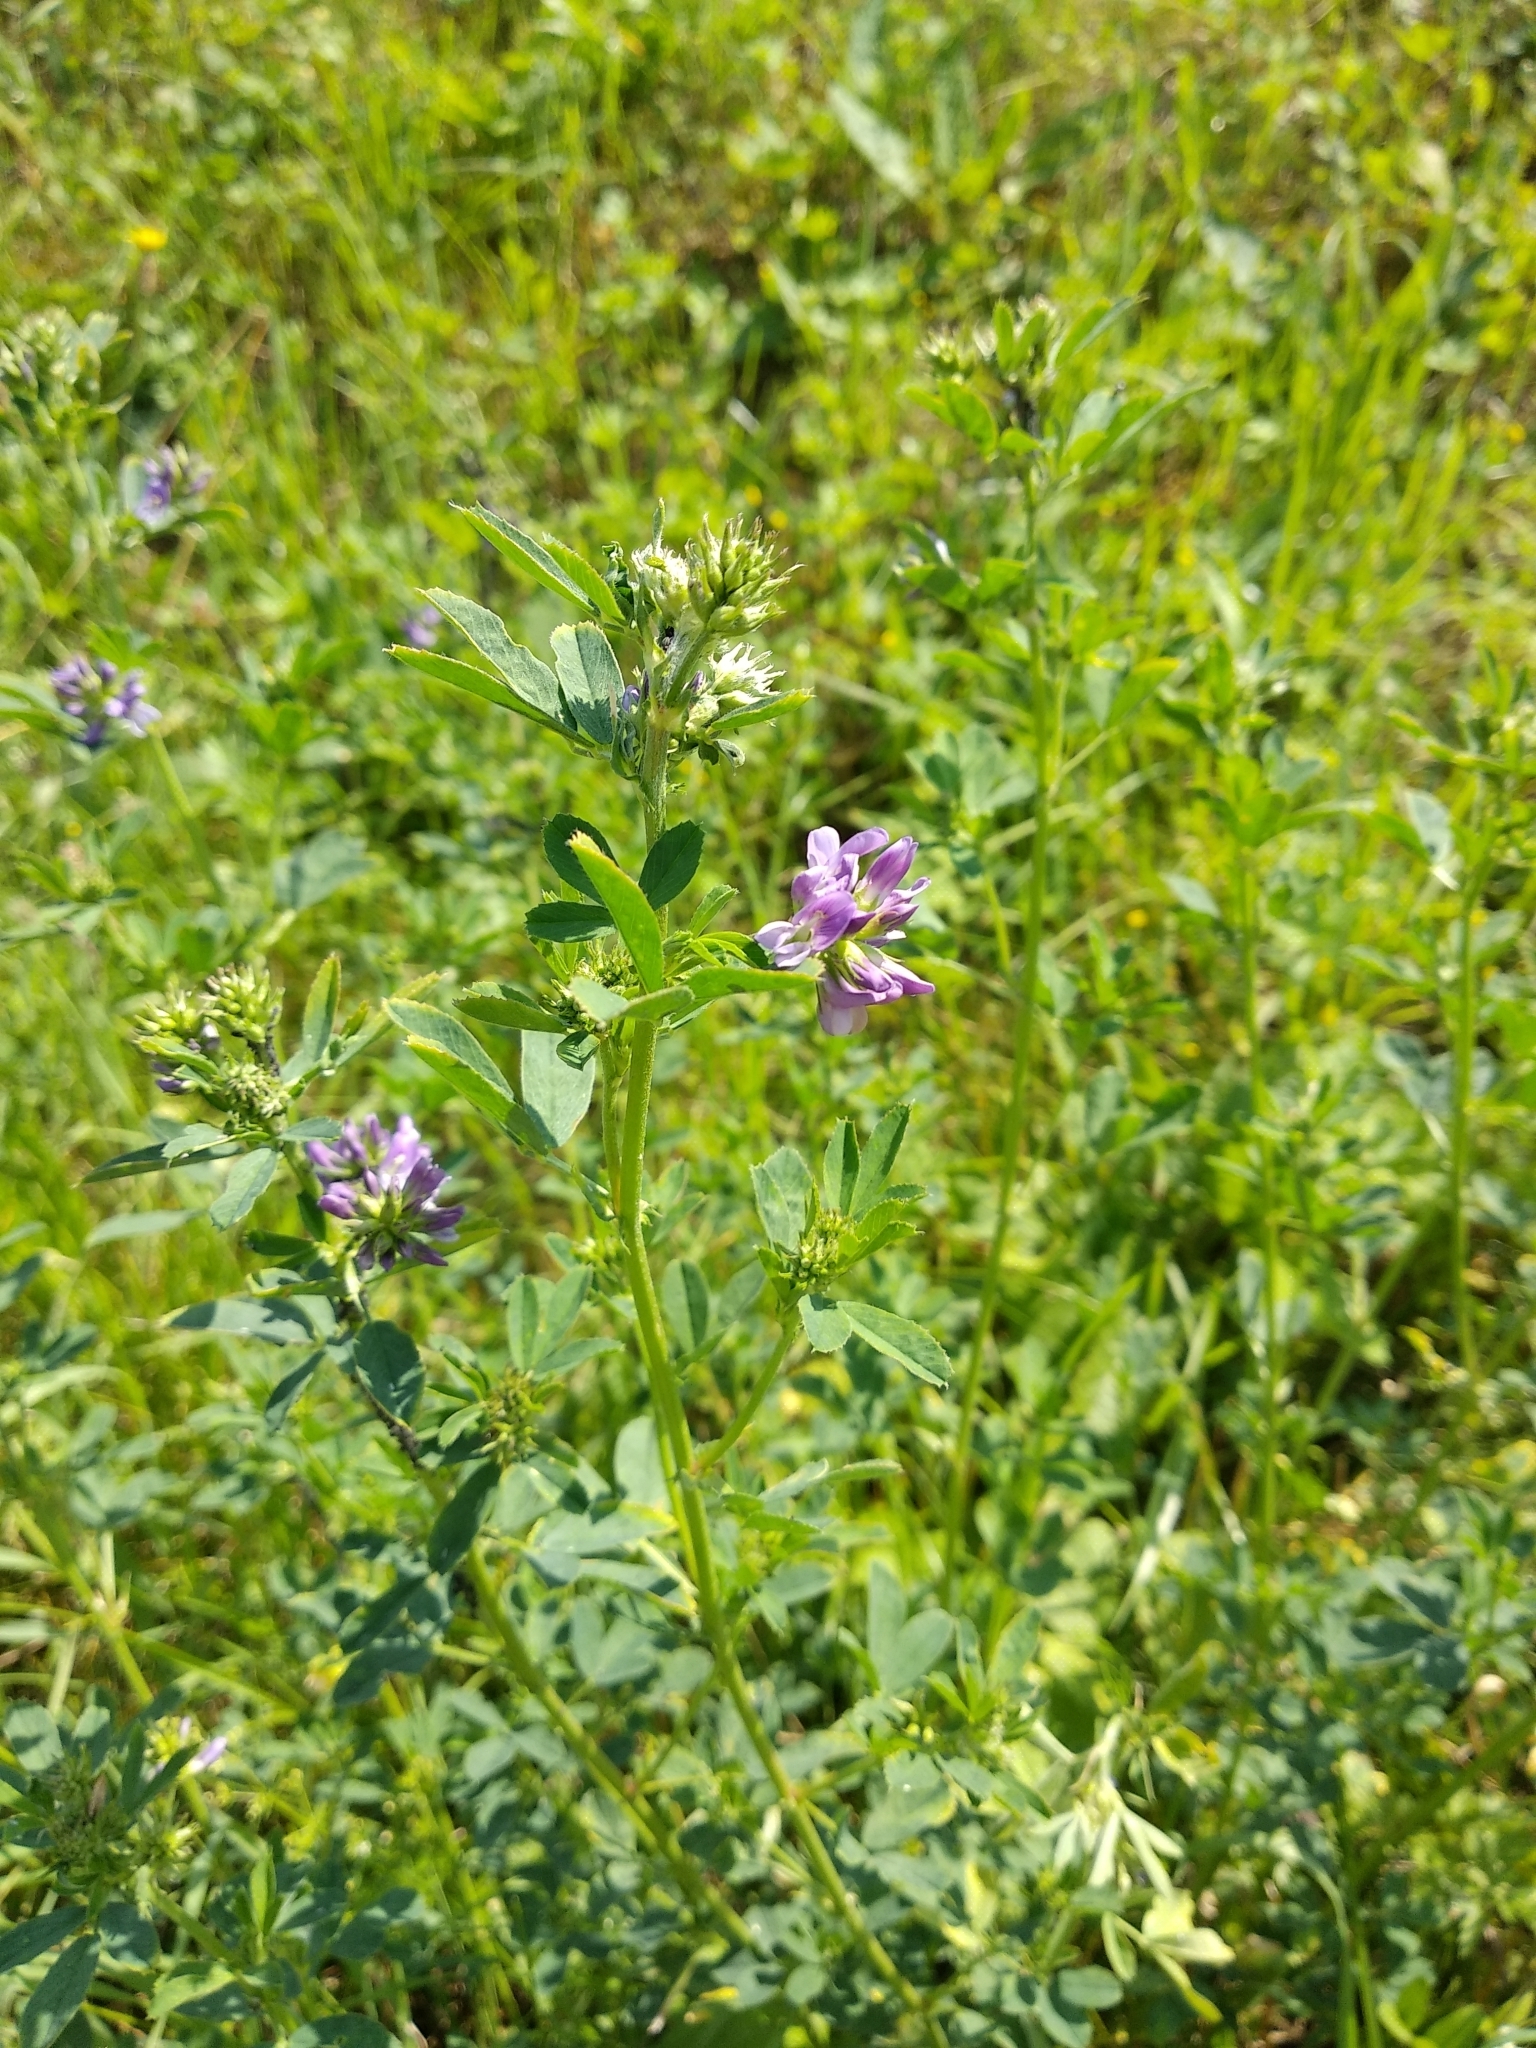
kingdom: Plantae
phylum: Tracheophyta
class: Magnoliopsida
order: Fabales
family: Fabaceae
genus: Medicago
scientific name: Medicago sativa
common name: Alfalfa
